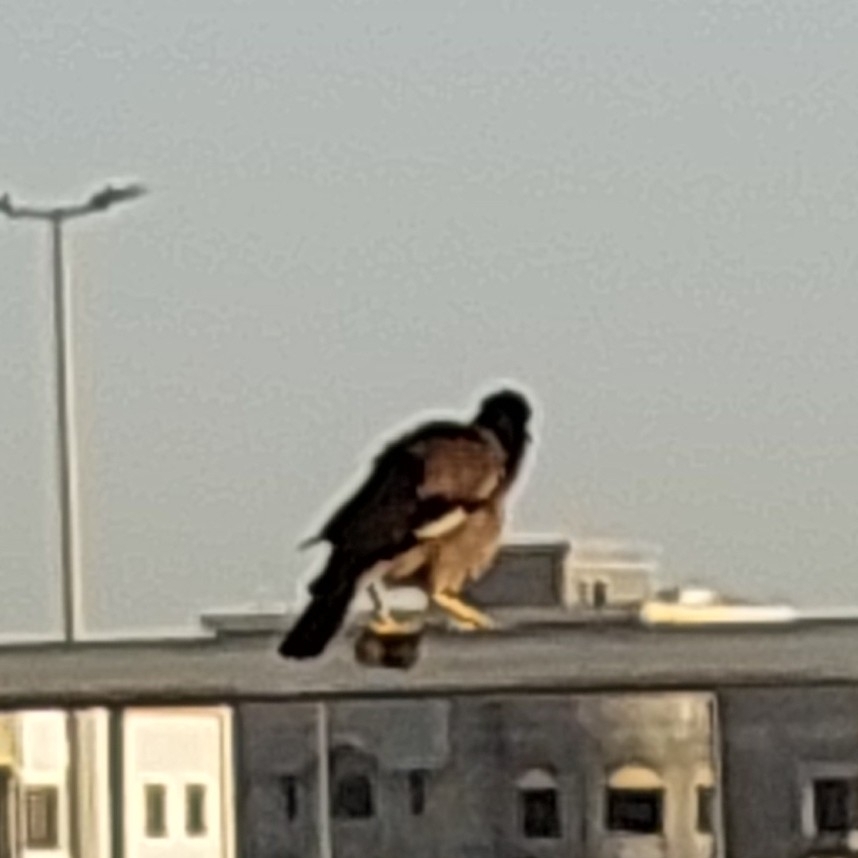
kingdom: Animalia
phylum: Chordata
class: Aves
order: Passeriformes
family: Sturnidae
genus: Acridotheres
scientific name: Acridotheres tristis
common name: Common myna
